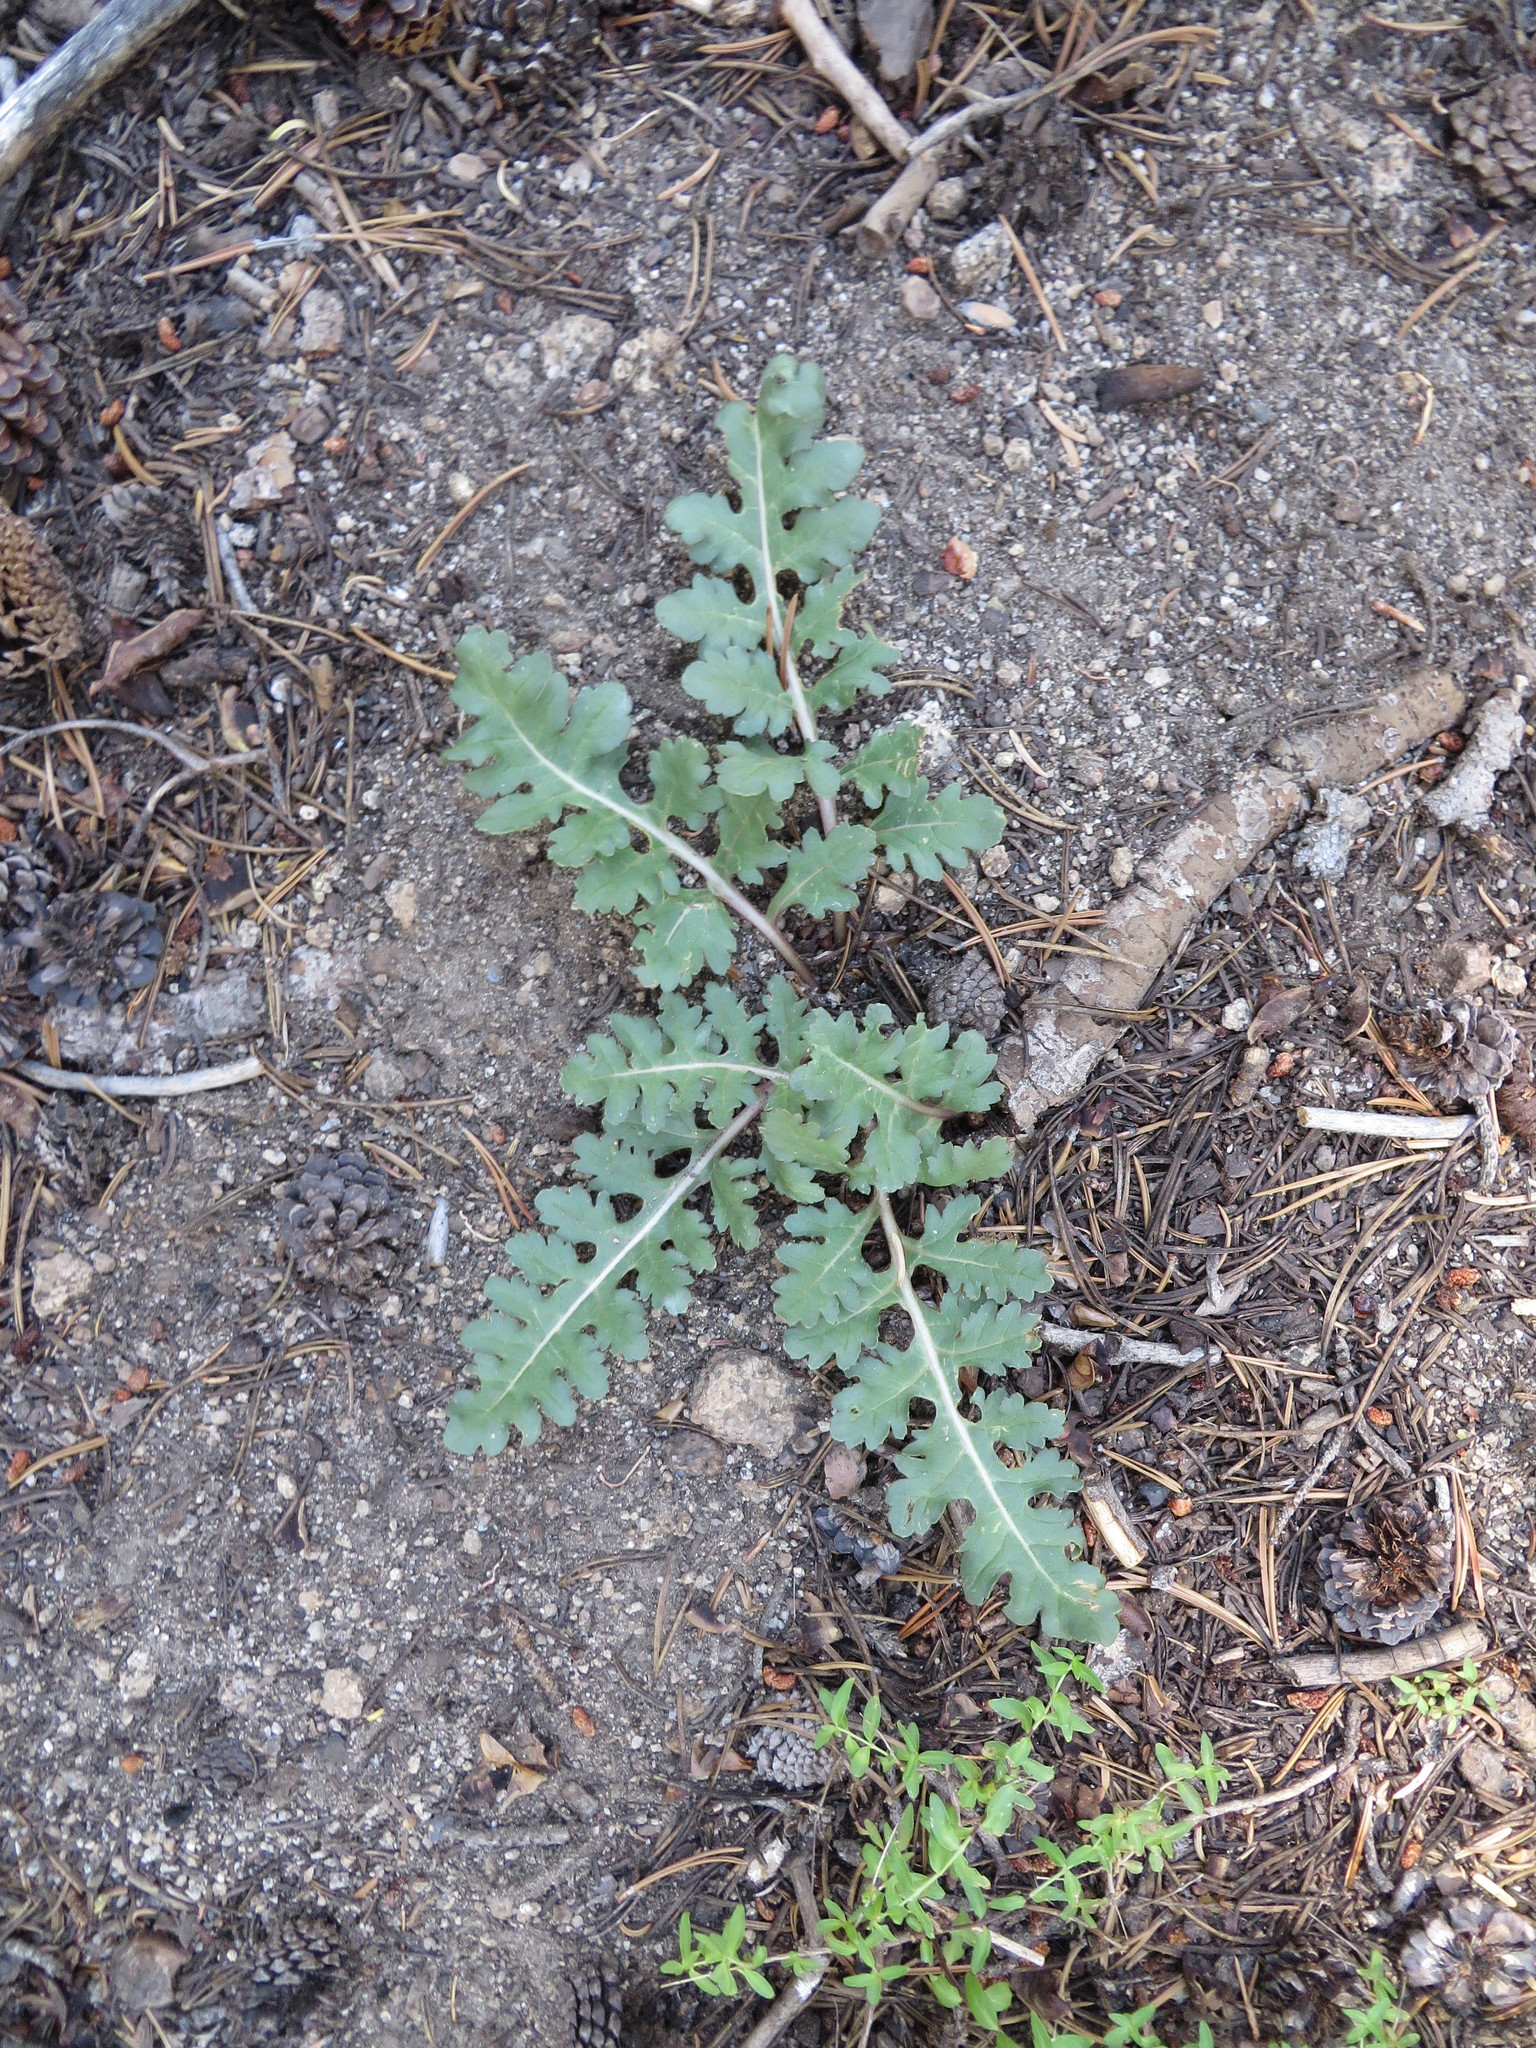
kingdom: Plantae
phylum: Tracheophyta
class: Magnoliopsida
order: Lamiales
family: Orobanchaceae
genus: Pedicularis
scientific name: Pedicularis semibarbata
